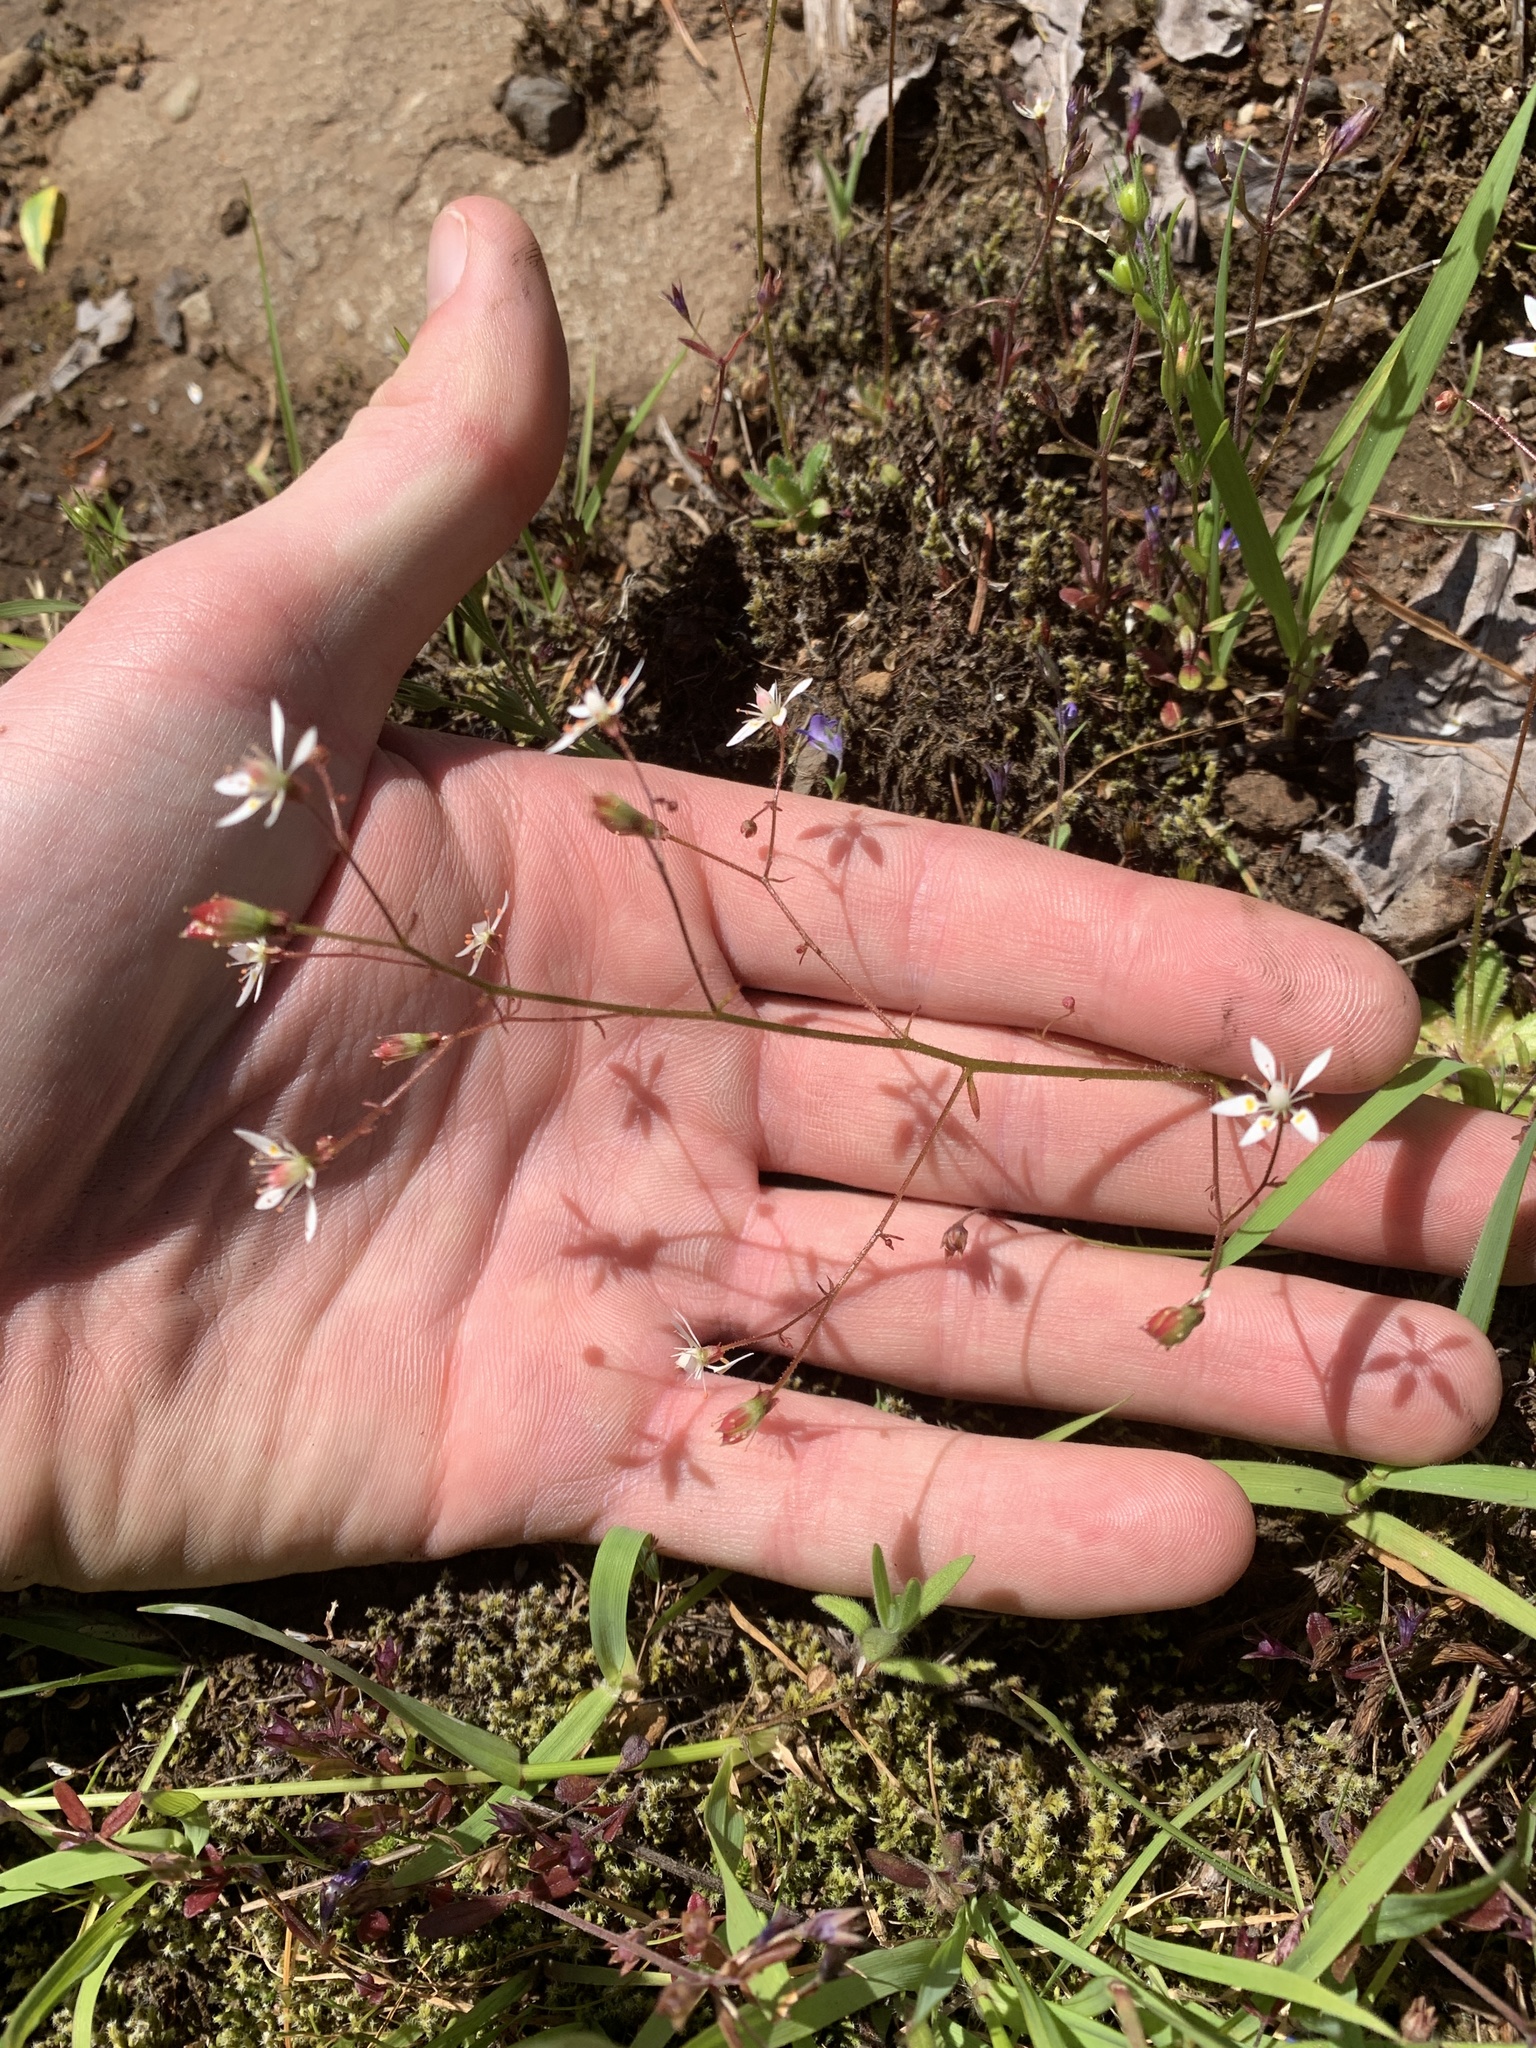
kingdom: Plantae
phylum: Tracheophyta
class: Magnoliopsida
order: Saxifragales
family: Saxifragaceae
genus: Micranthes
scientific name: Micranthes ferruginea
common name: Rusty saxifrage
